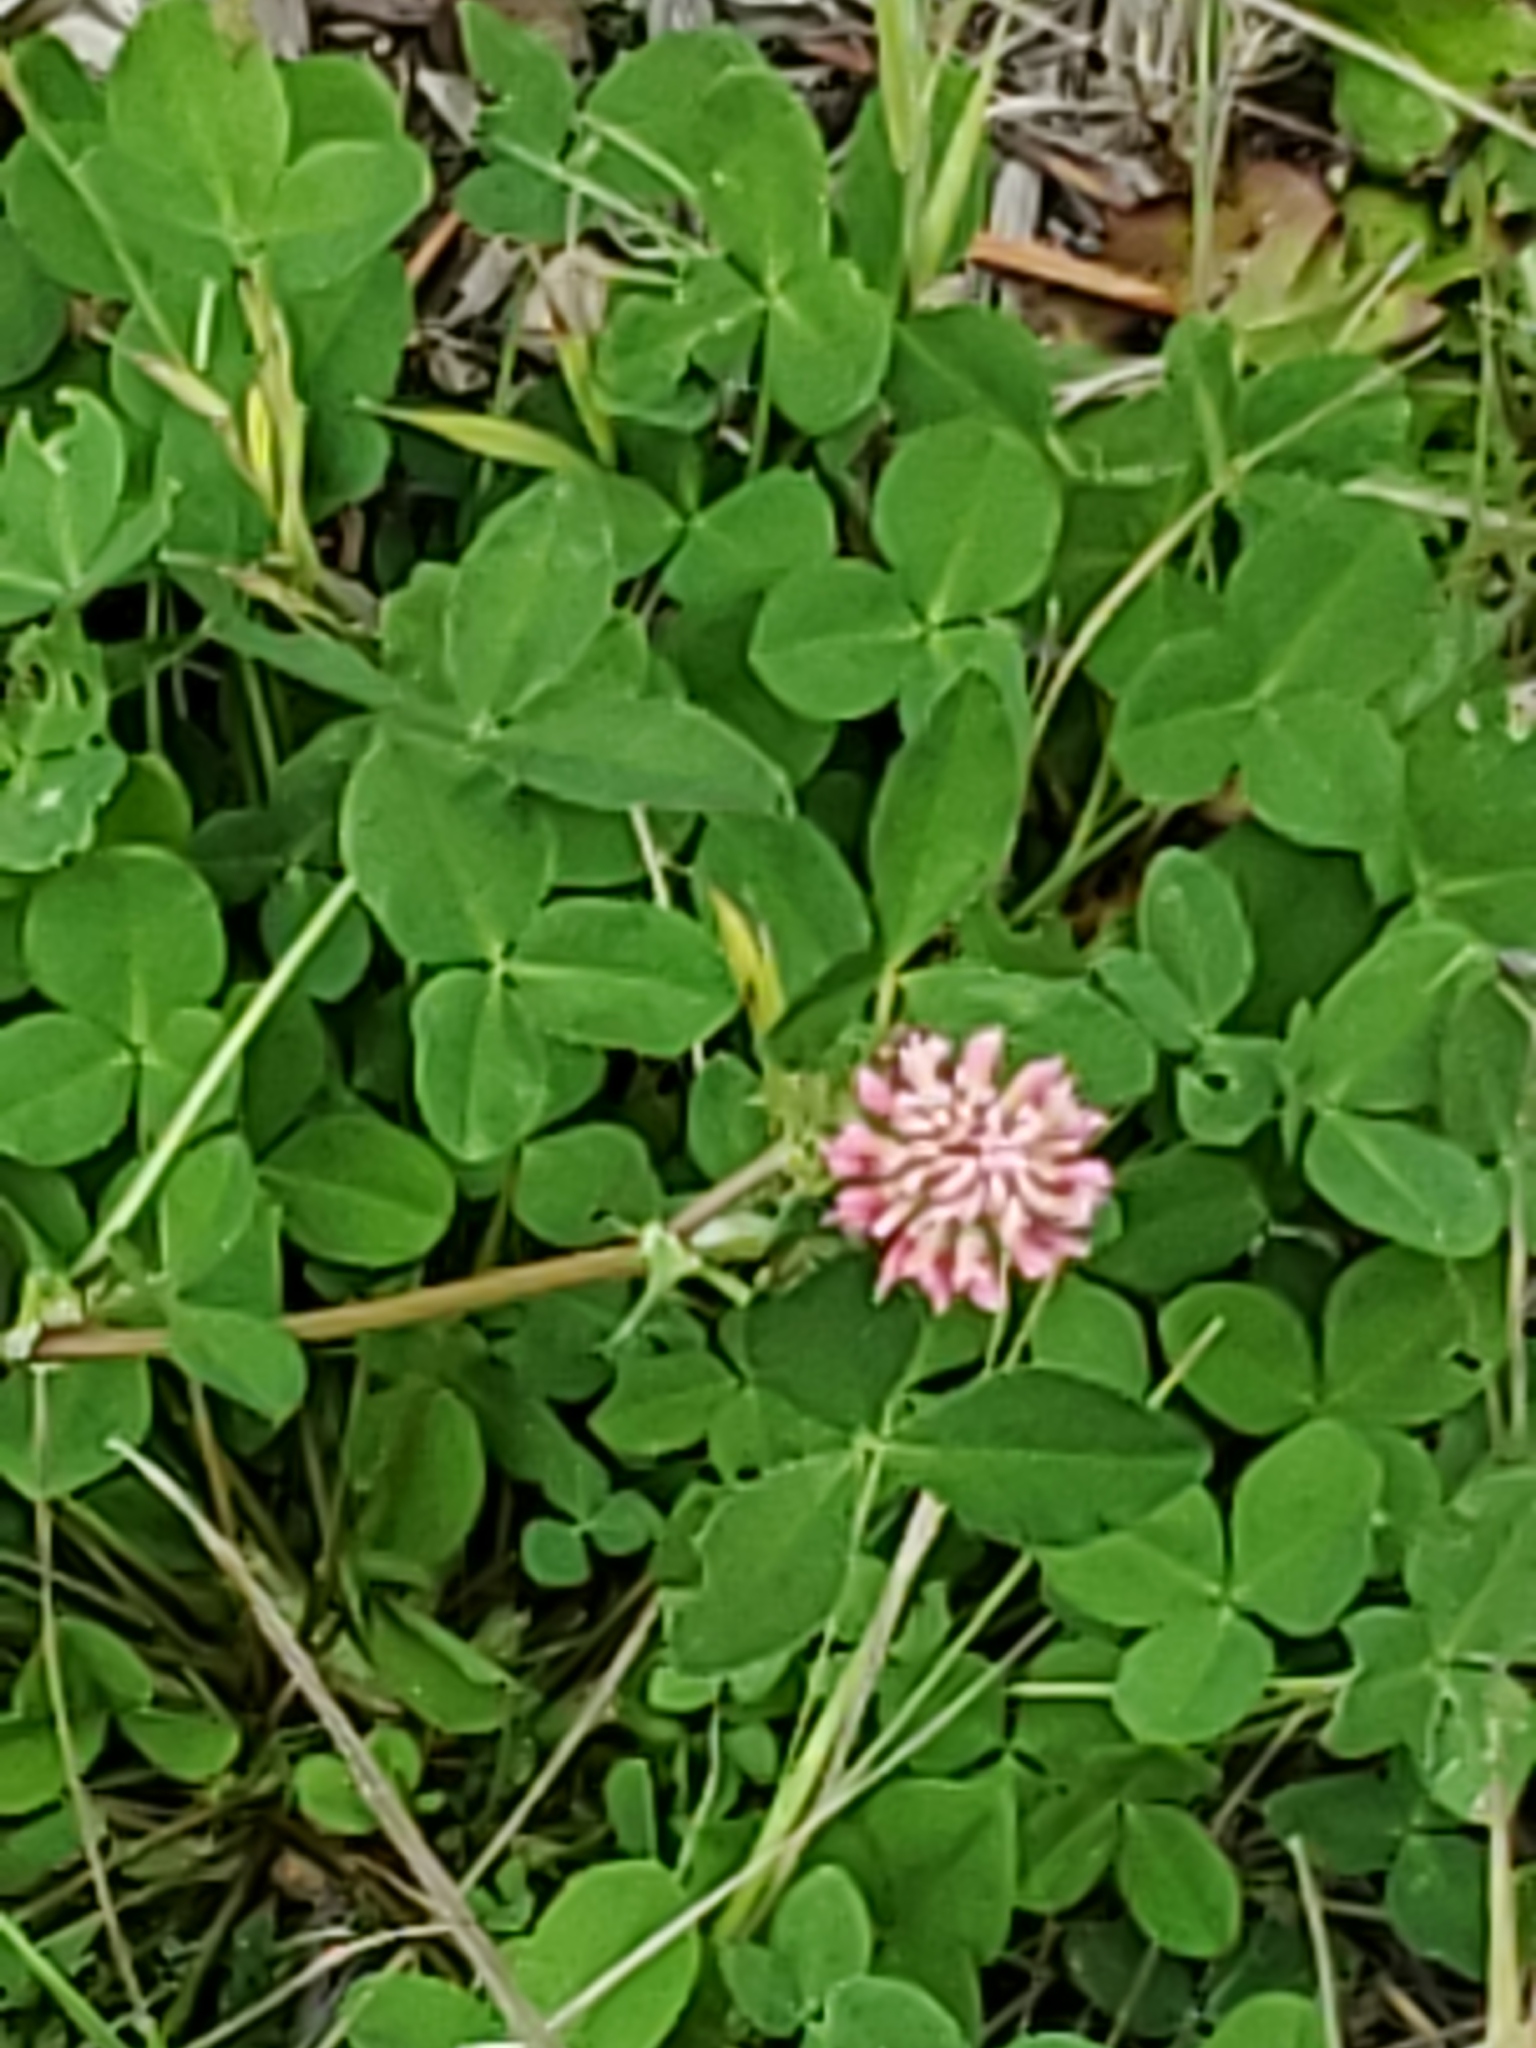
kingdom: Plantae
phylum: Tracheophyta
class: Magnoliopsida
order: Fabales
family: Fabaceae
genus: Trifolium
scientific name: Trifolium hybridum
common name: Alsike clover
